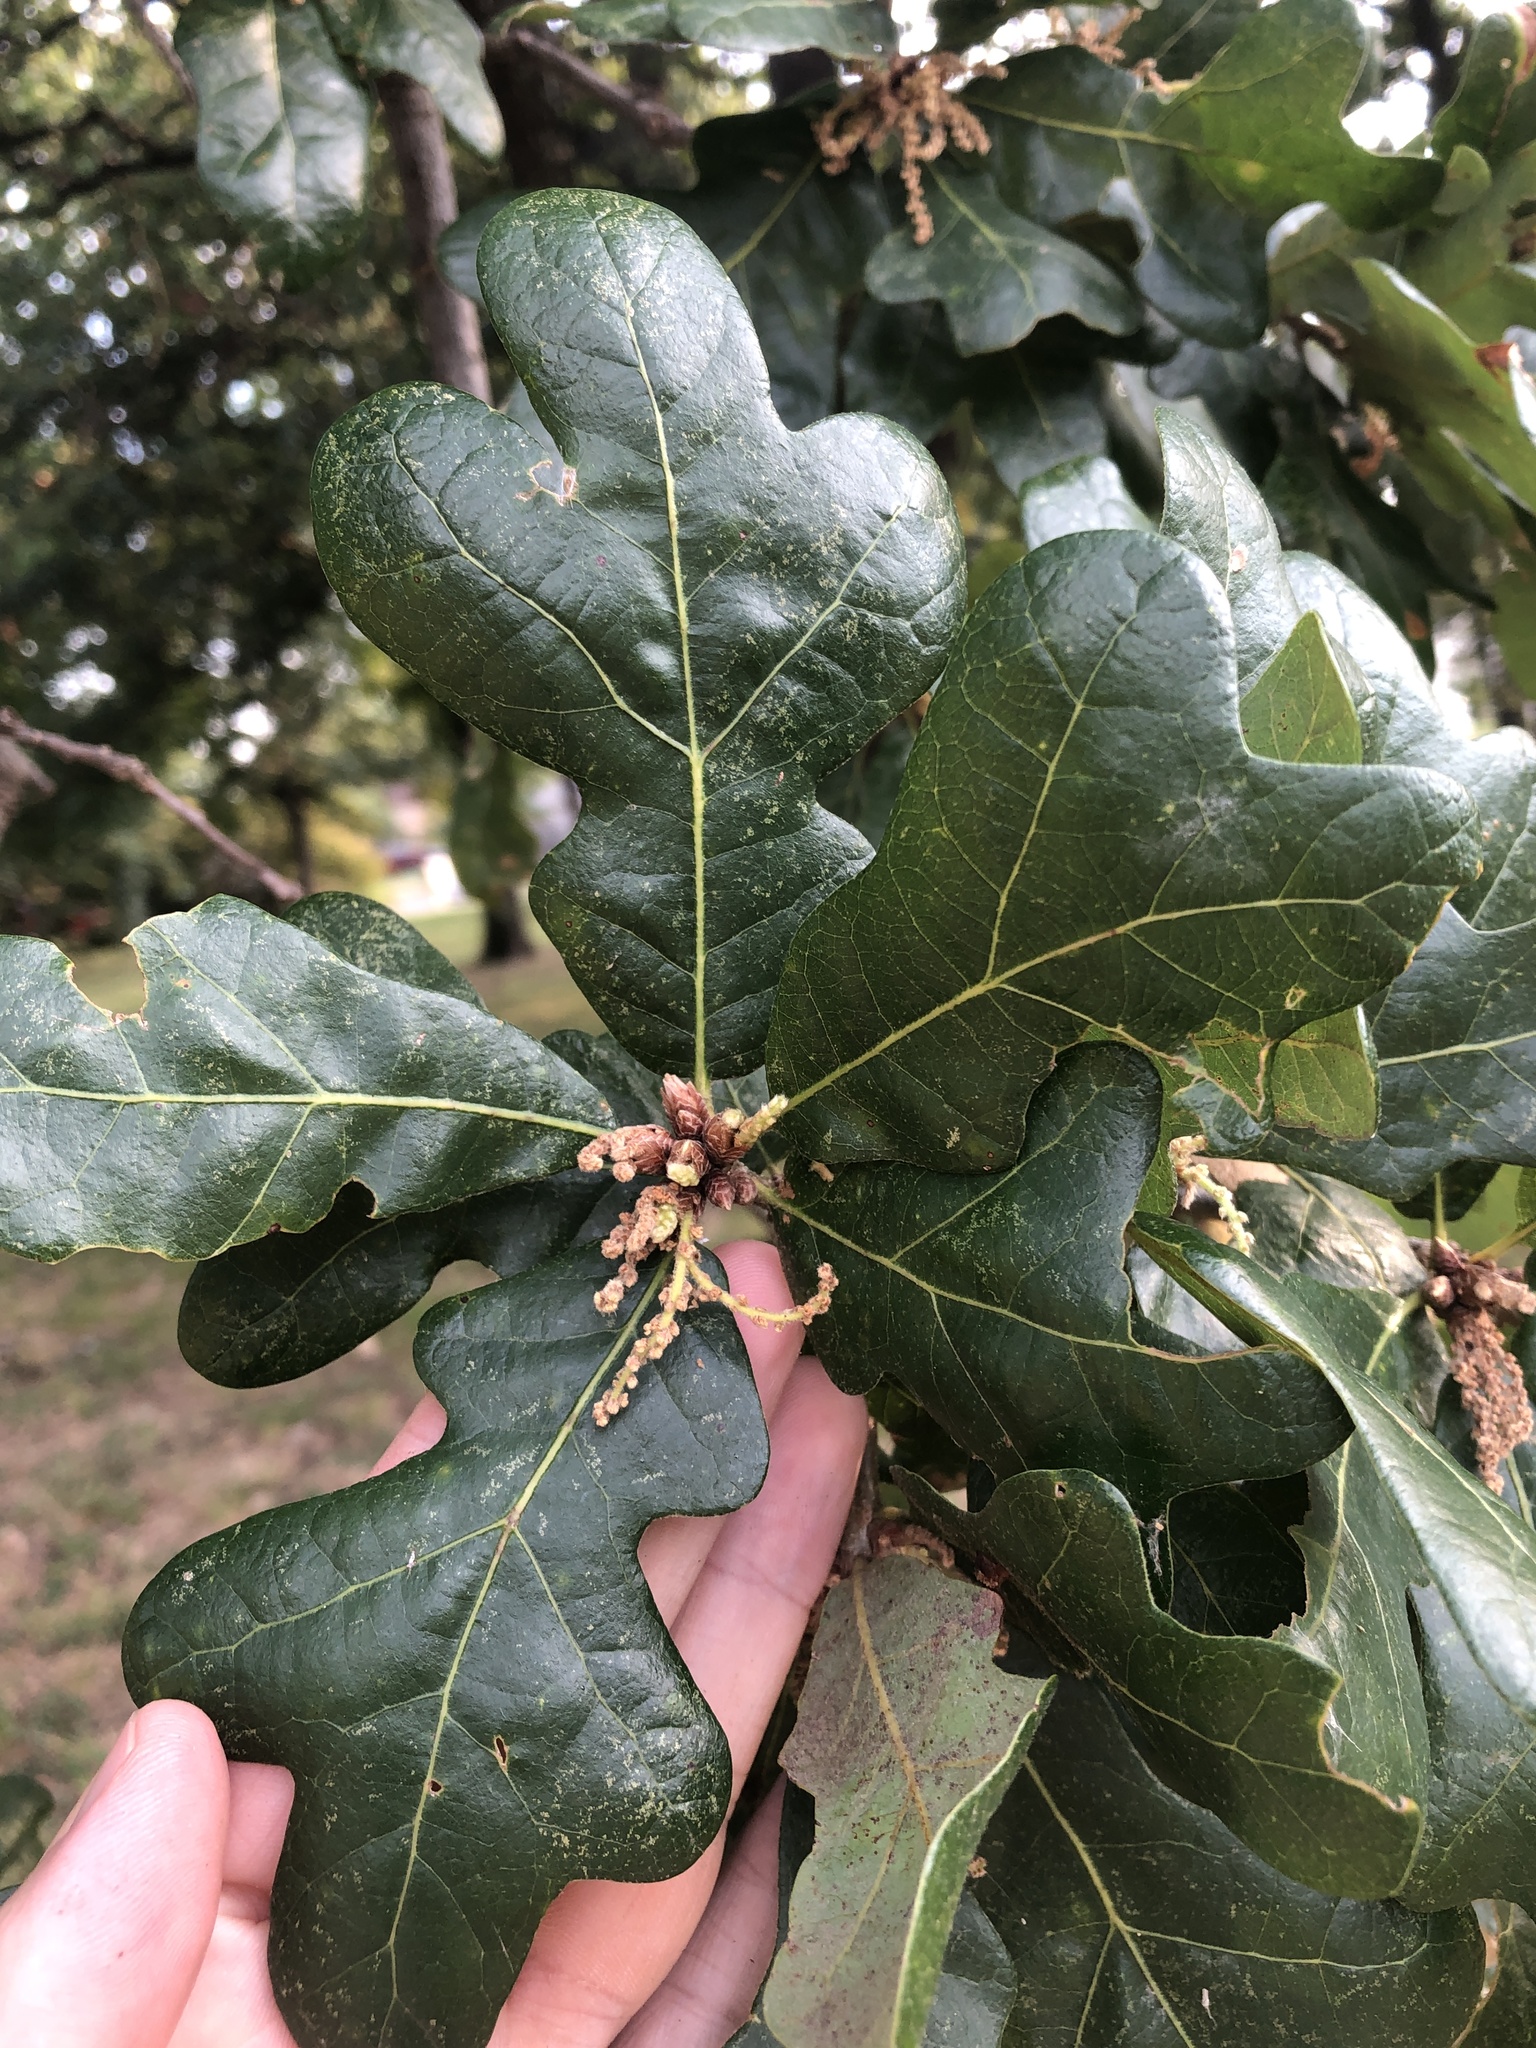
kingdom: Plantae
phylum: Tracheophyta
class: Magnoliopsida
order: Fagales
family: Fagaceae
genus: Quercus
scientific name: Quercus stellata
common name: Post oak
